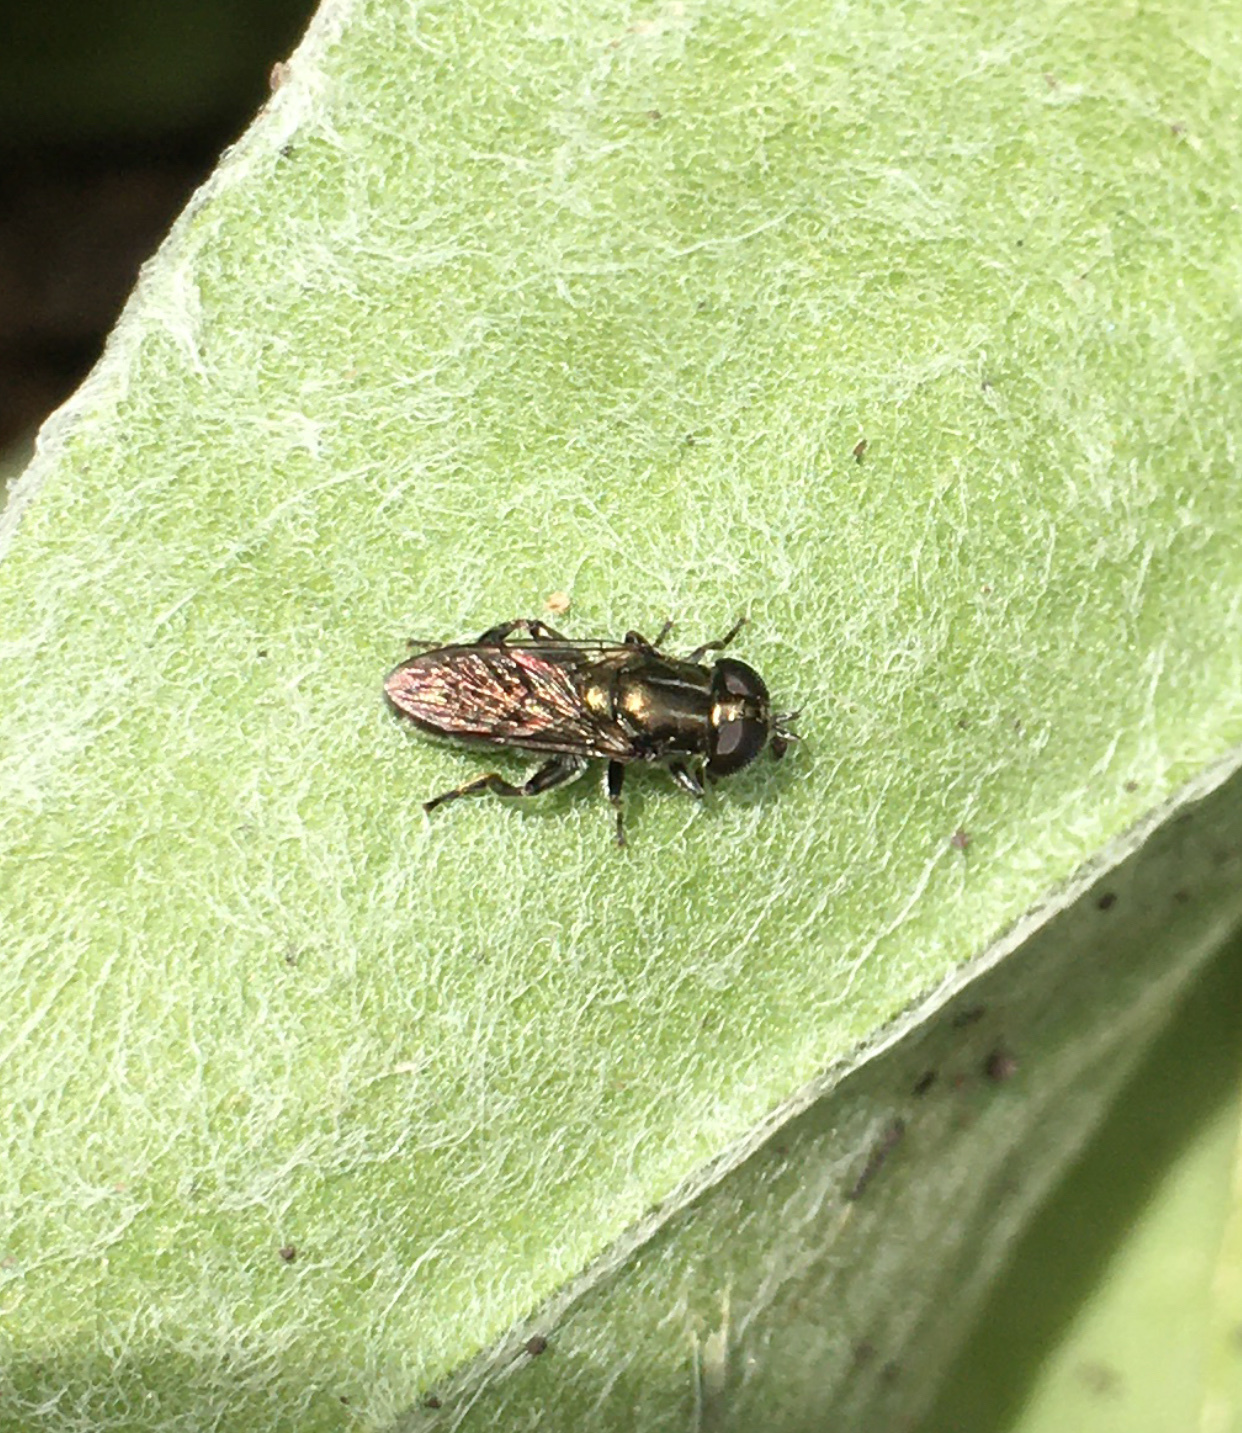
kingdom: Animalia
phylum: Arthropoda
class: Insecta
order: Diptera
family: Syrphidae
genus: Eumerus
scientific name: Eumerus
